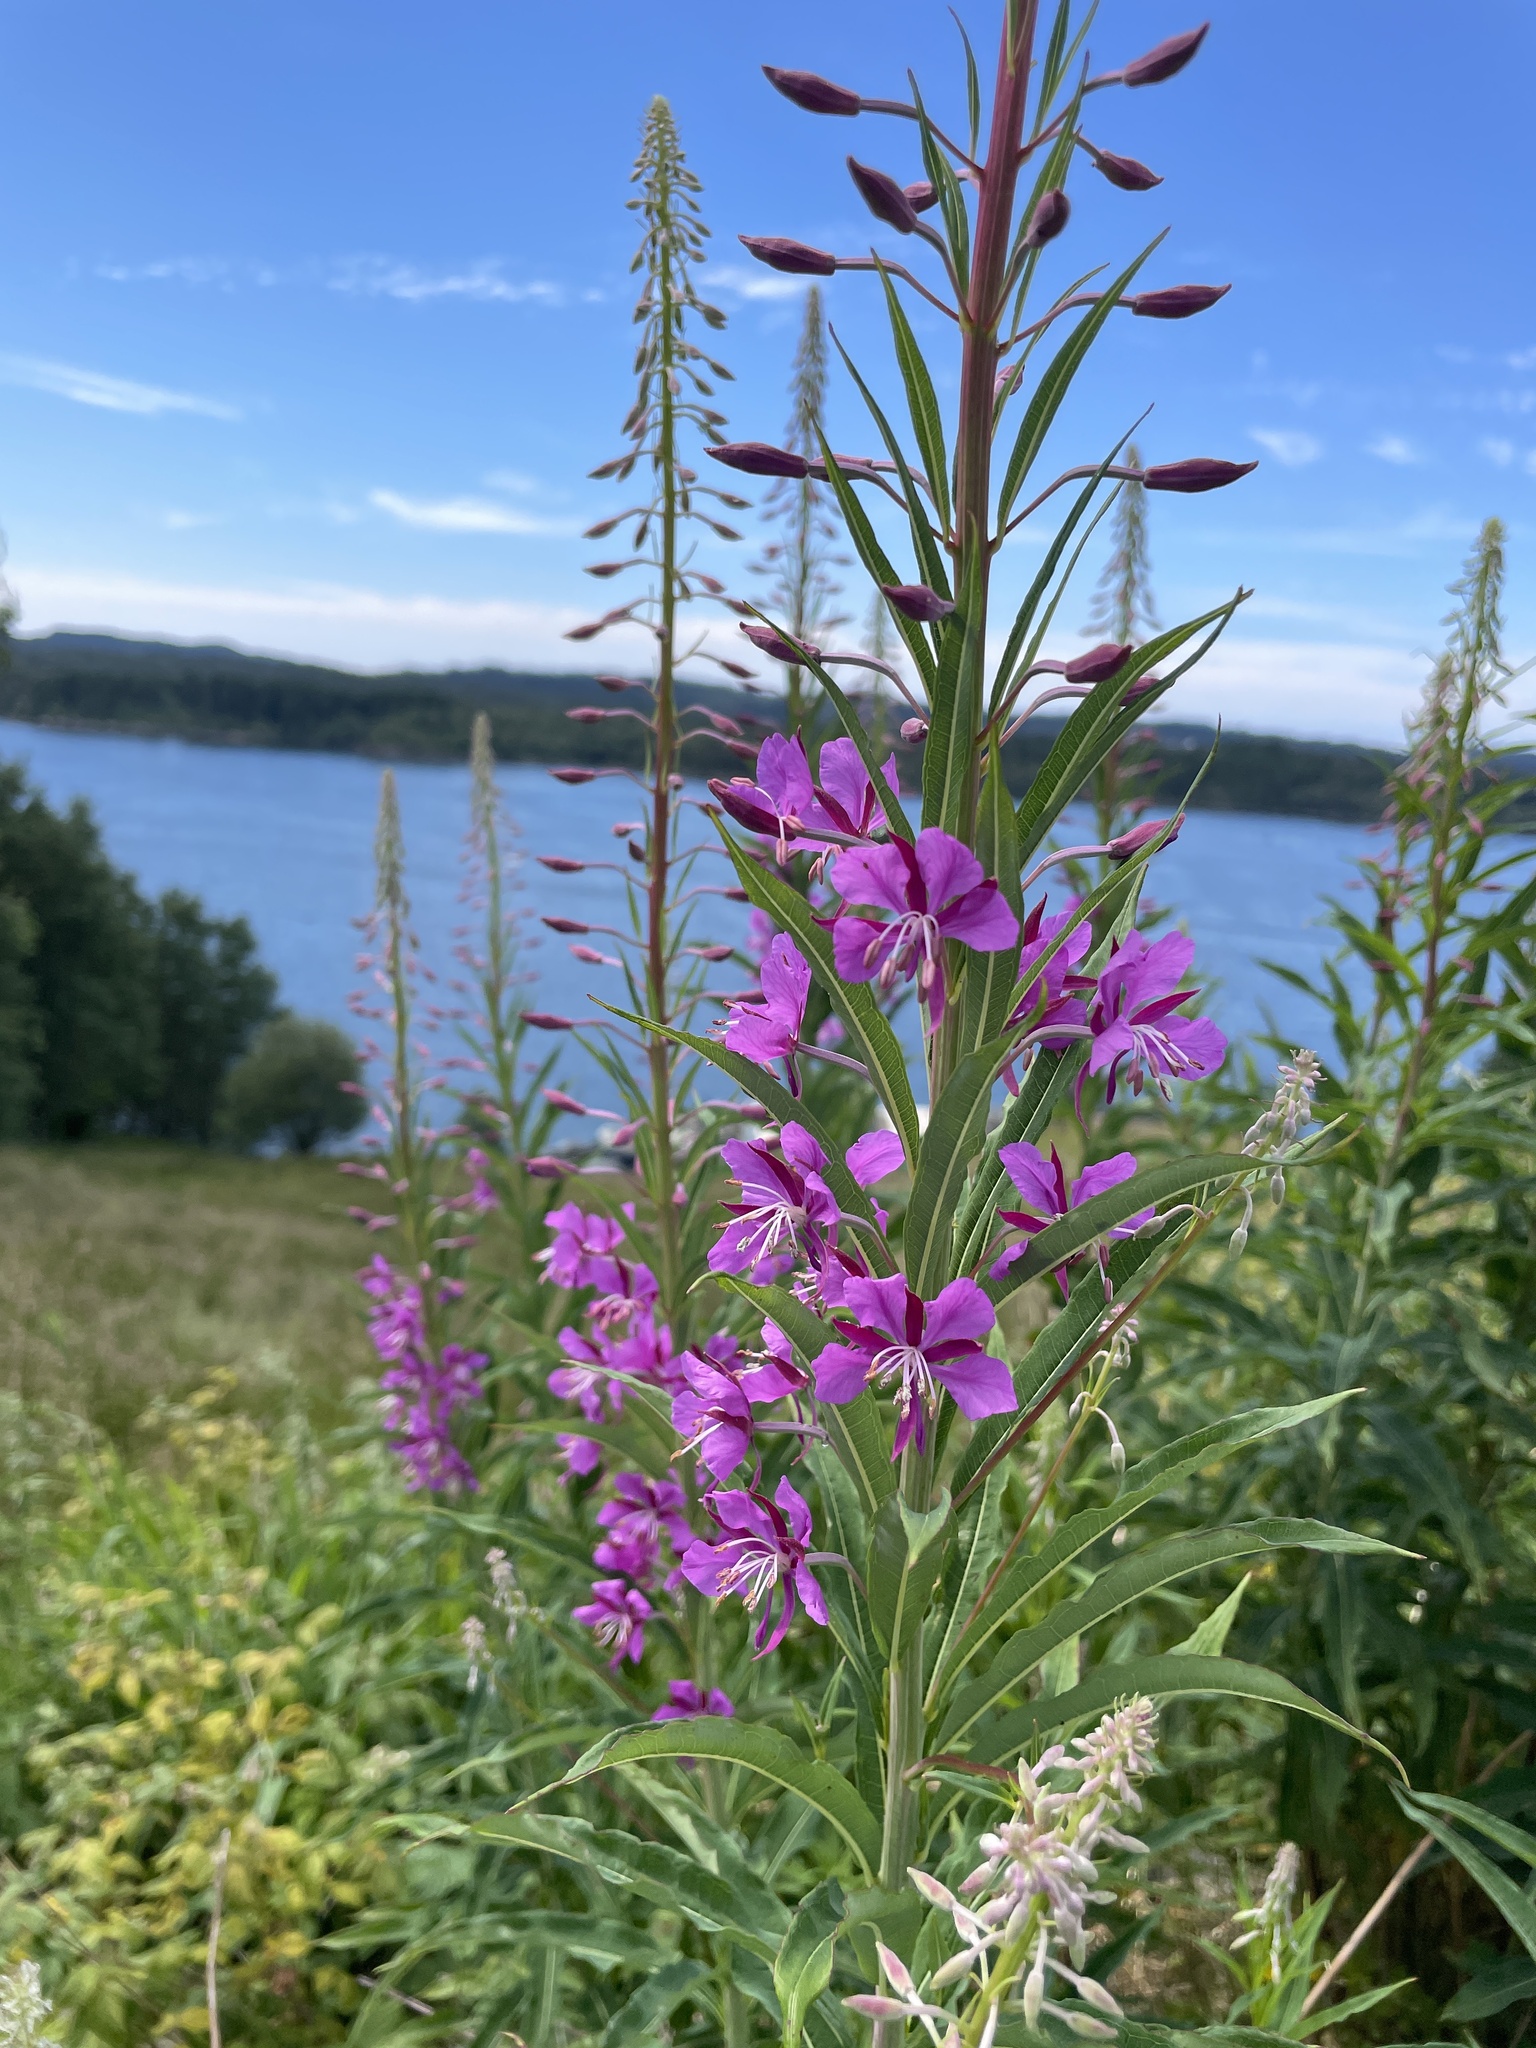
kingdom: Plantae
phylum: Tracheophyta
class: Magnoliopsida
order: Myrtales
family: Onagraceae
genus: Chamaenerion
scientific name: Chamaenerion angustifolium
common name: Fireweed
